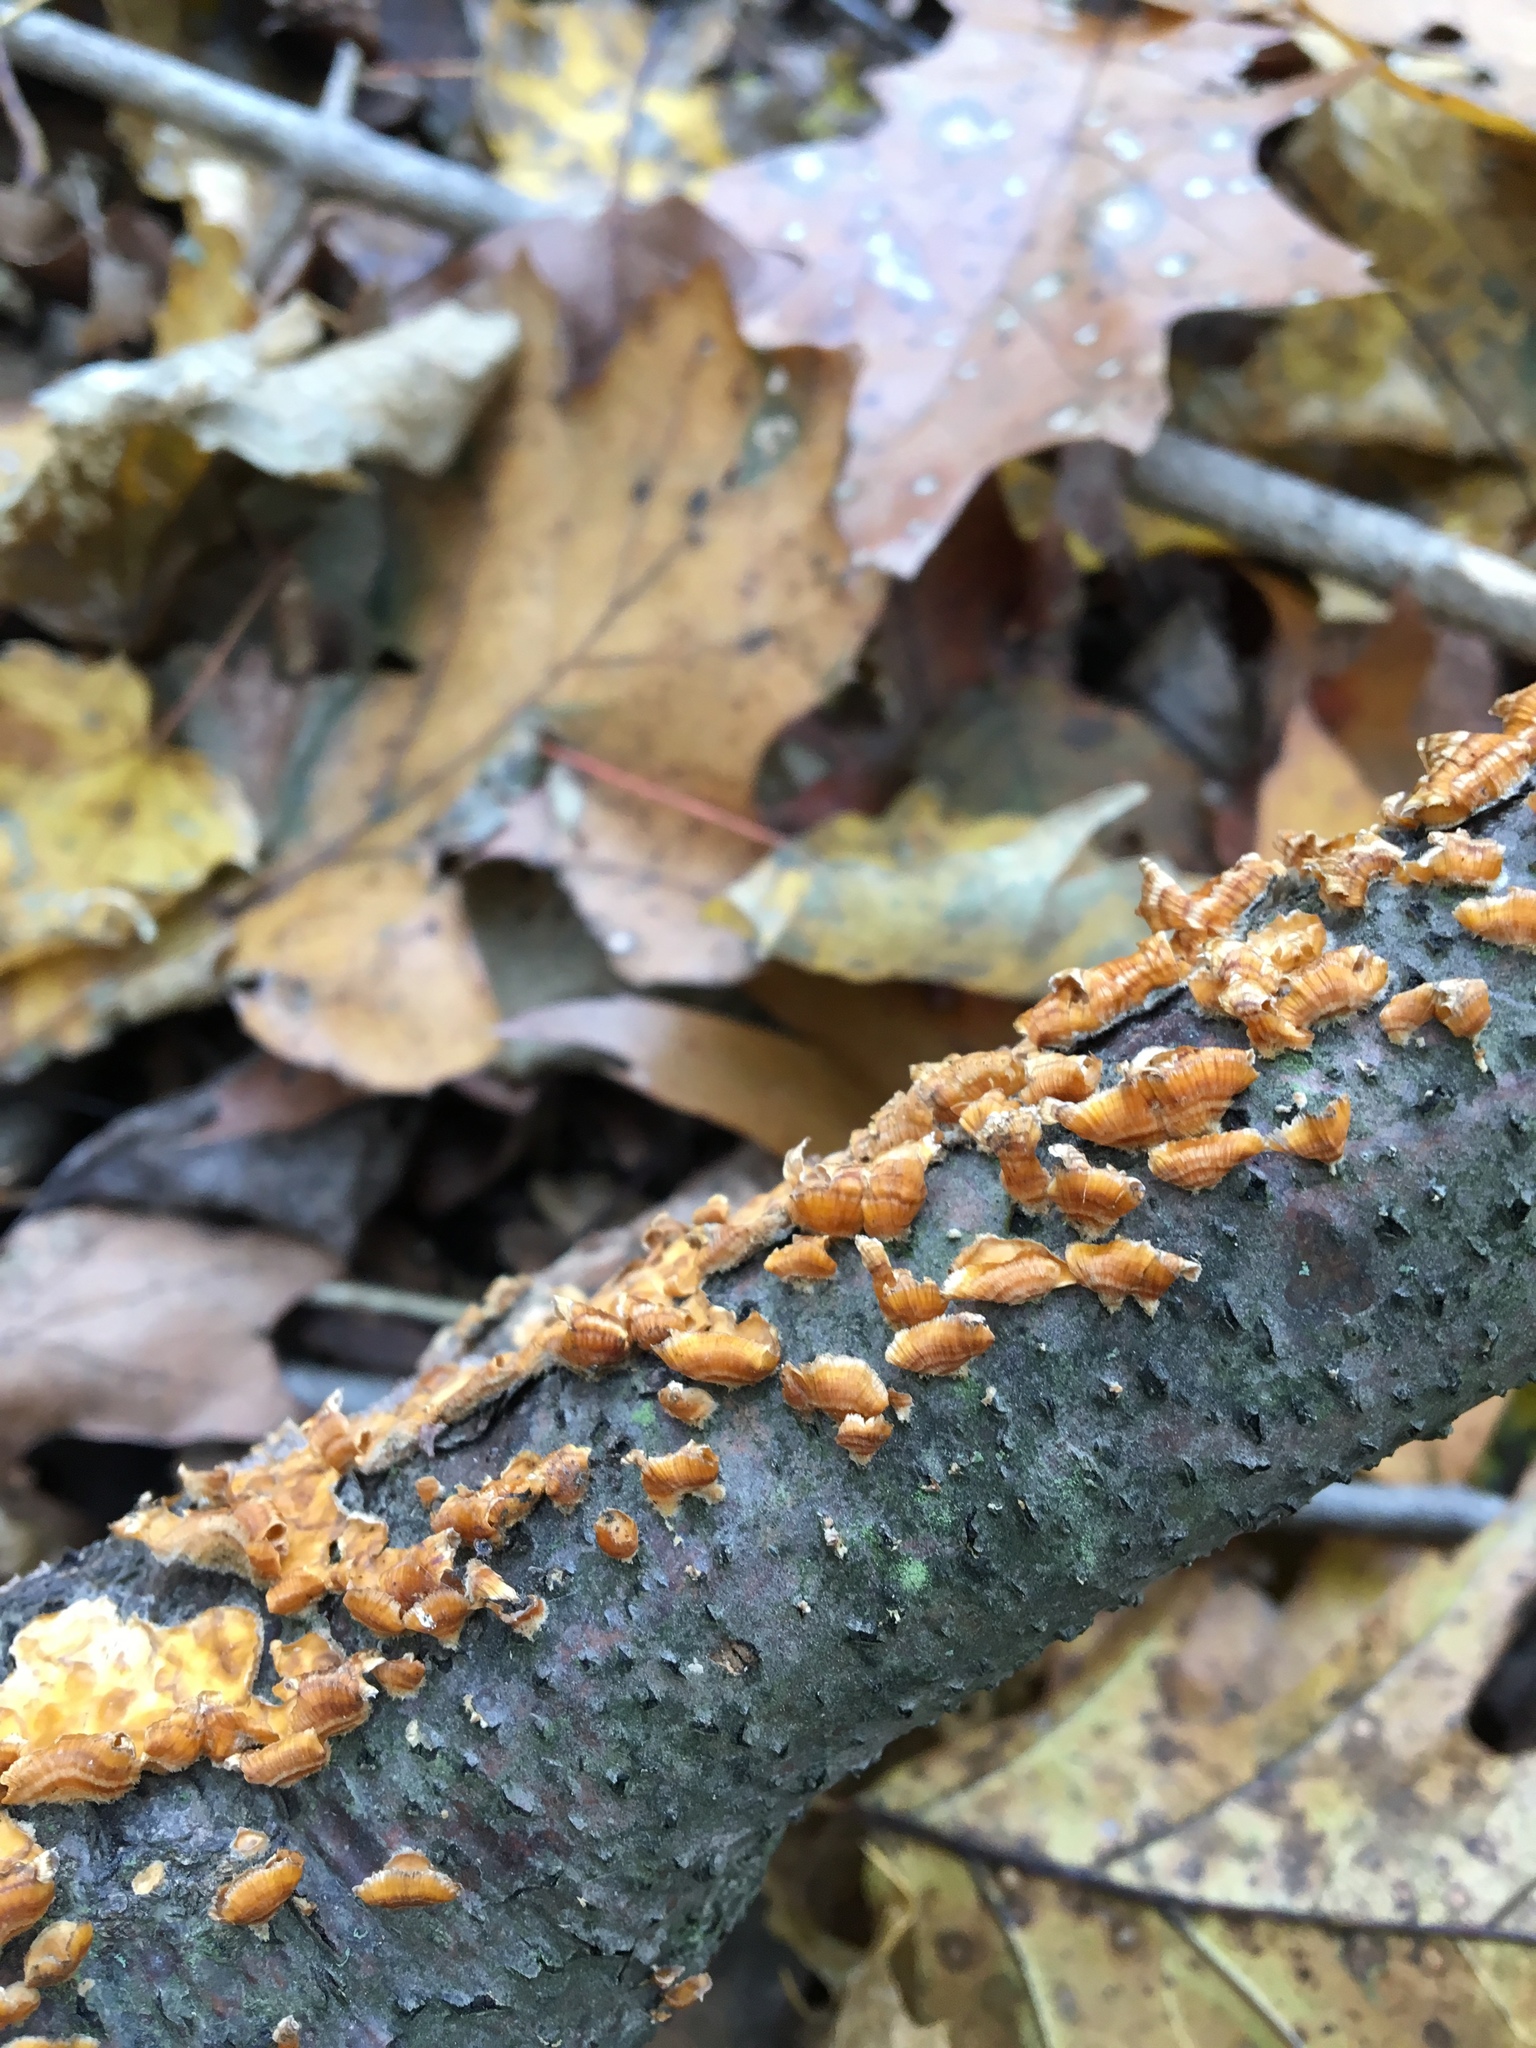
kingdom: Fungi
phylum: Basidiomycota
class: Agaricomycetes
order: Russulales
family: Stereaceae
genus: Stereum
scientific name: Stereum complicatum
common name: Crowded parchment
